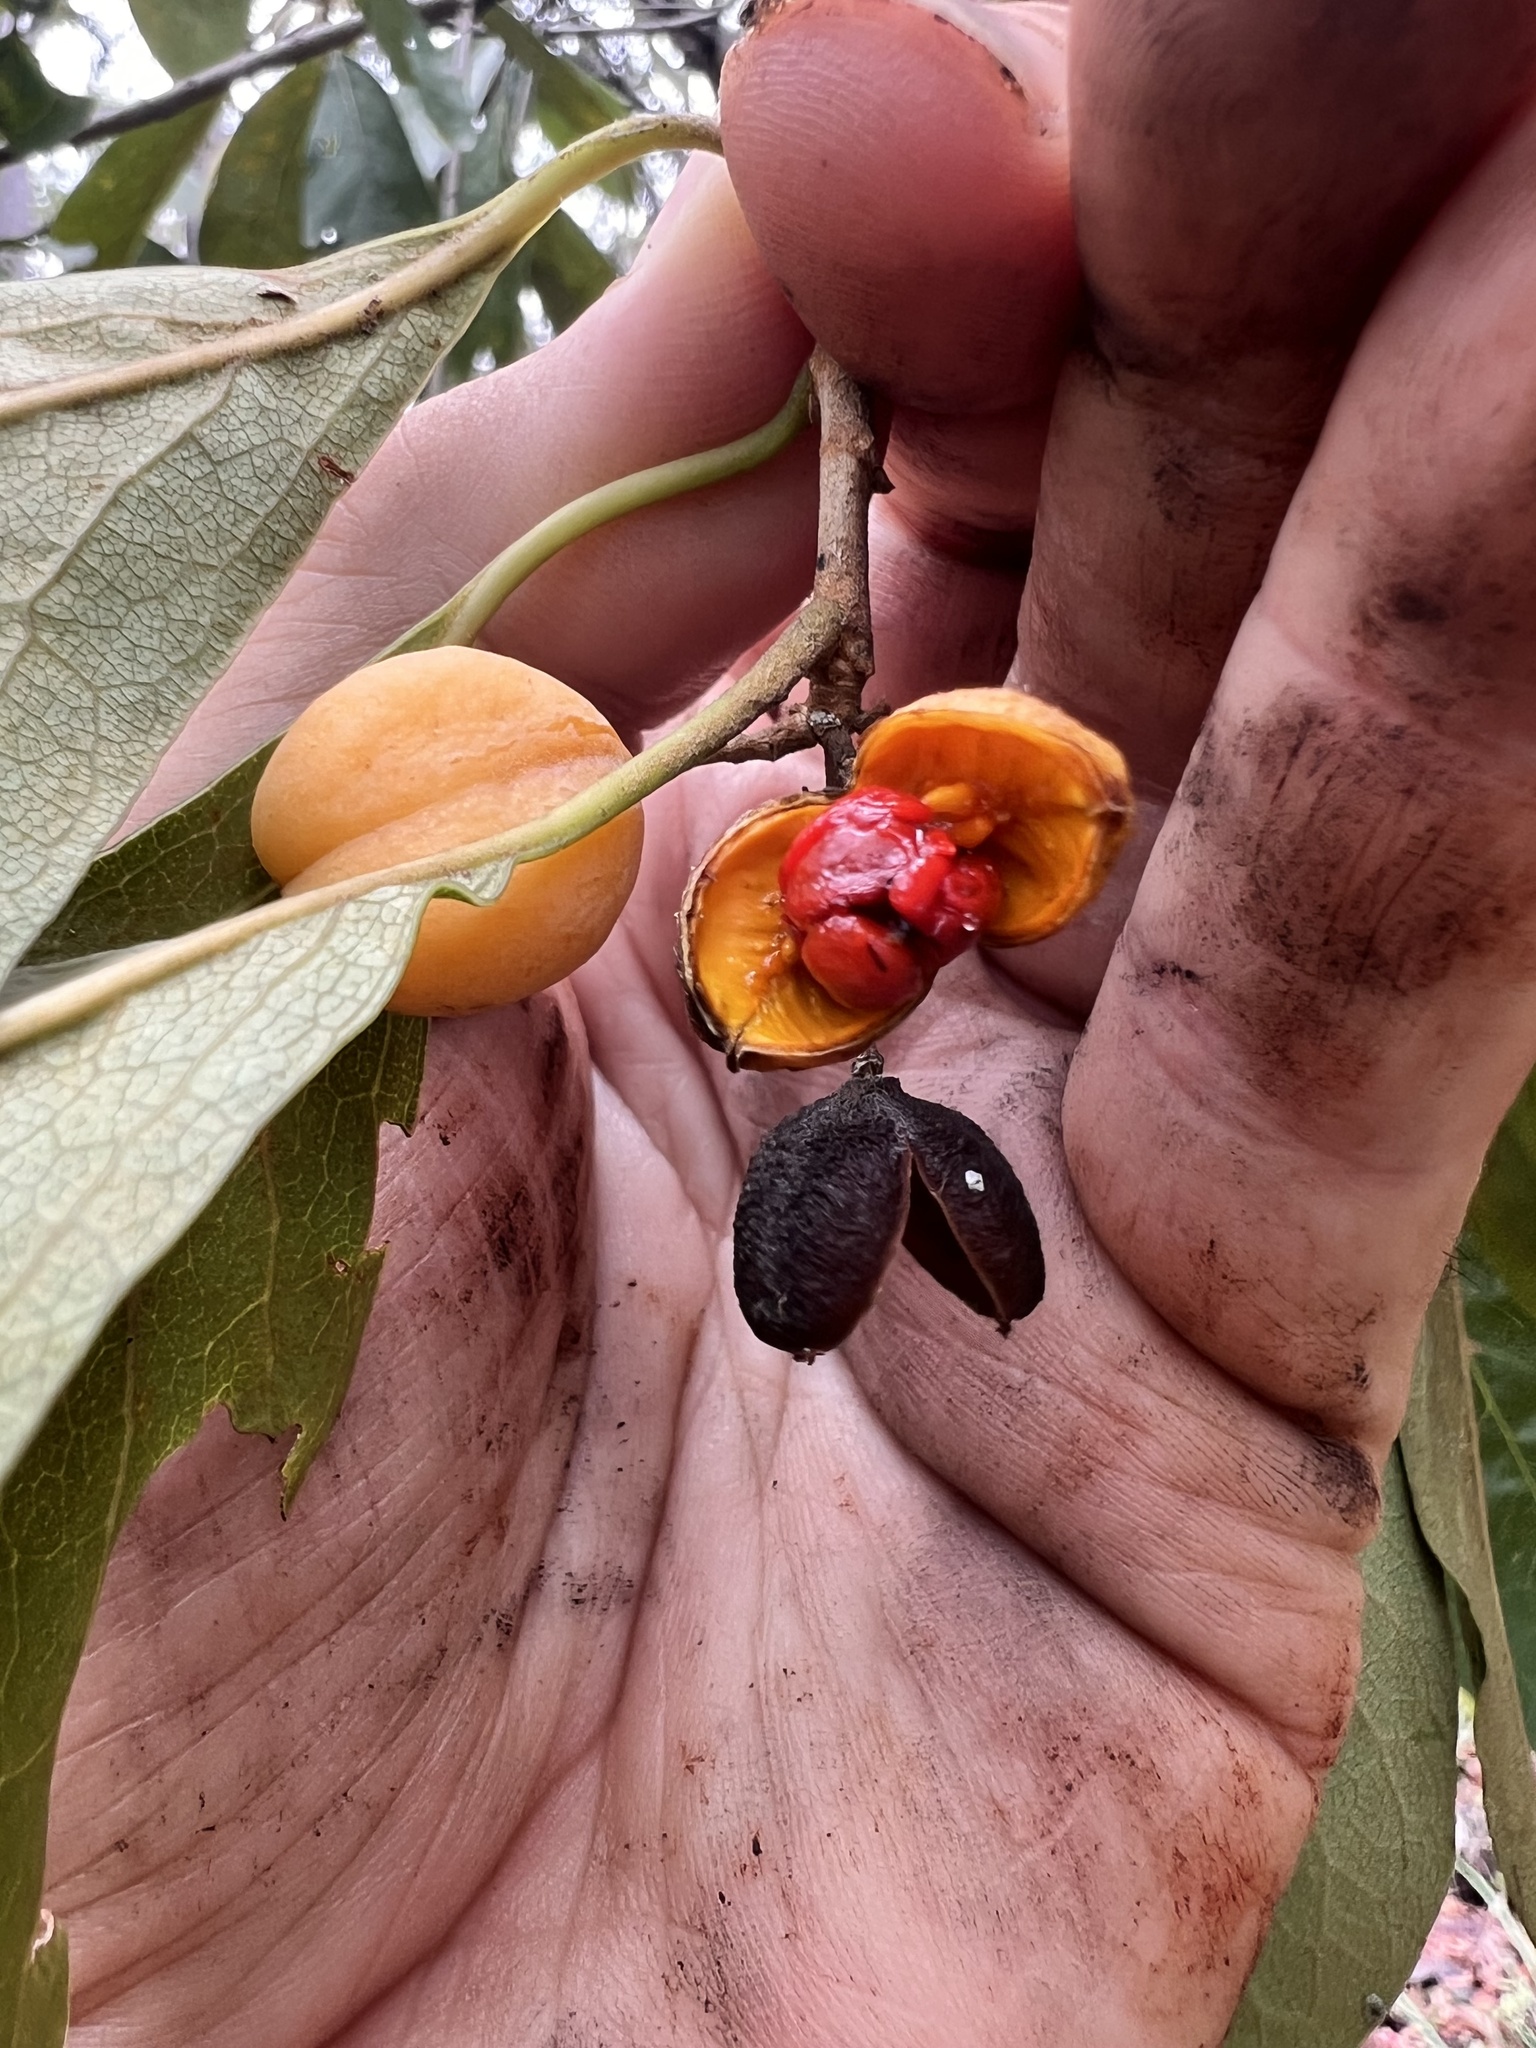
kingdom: Plantae
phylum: Tracheophyta
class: Magnoliopsida
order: Apiales
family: Pittosporaceae
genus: Pittosporum
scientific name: Pittosporum tinifolium
